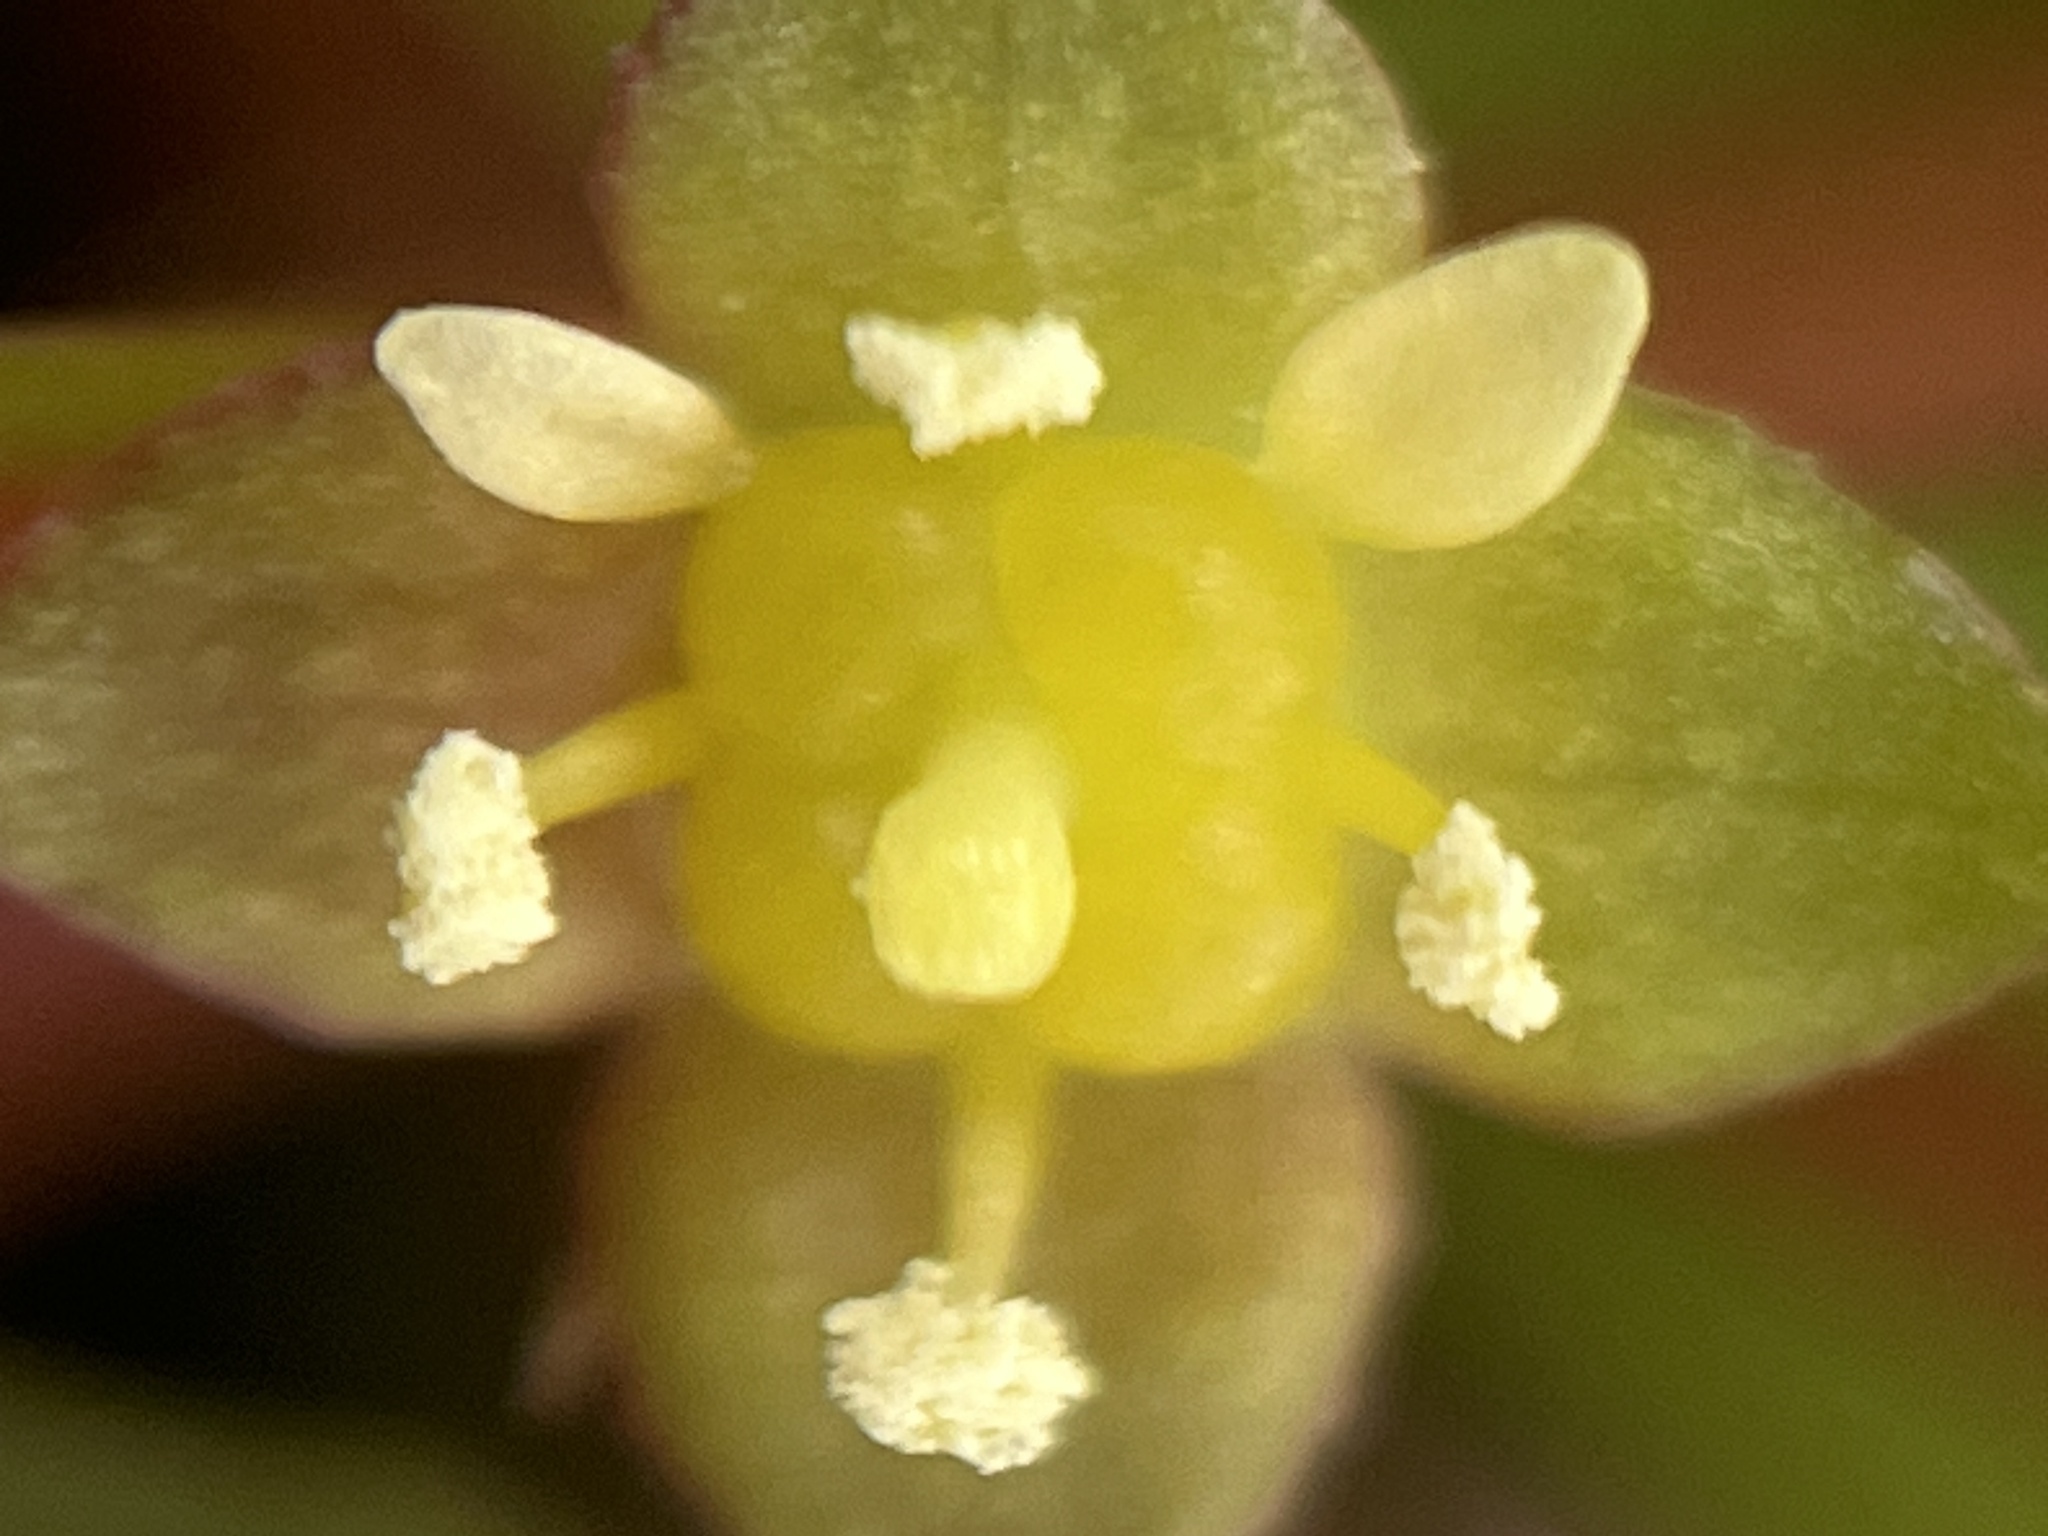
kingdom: Plantae
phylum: Tracheophyta
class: Magnoliopsida
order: Myrtales
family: Onagraceae
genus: Ludwigia
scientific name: Ludwigia repens
